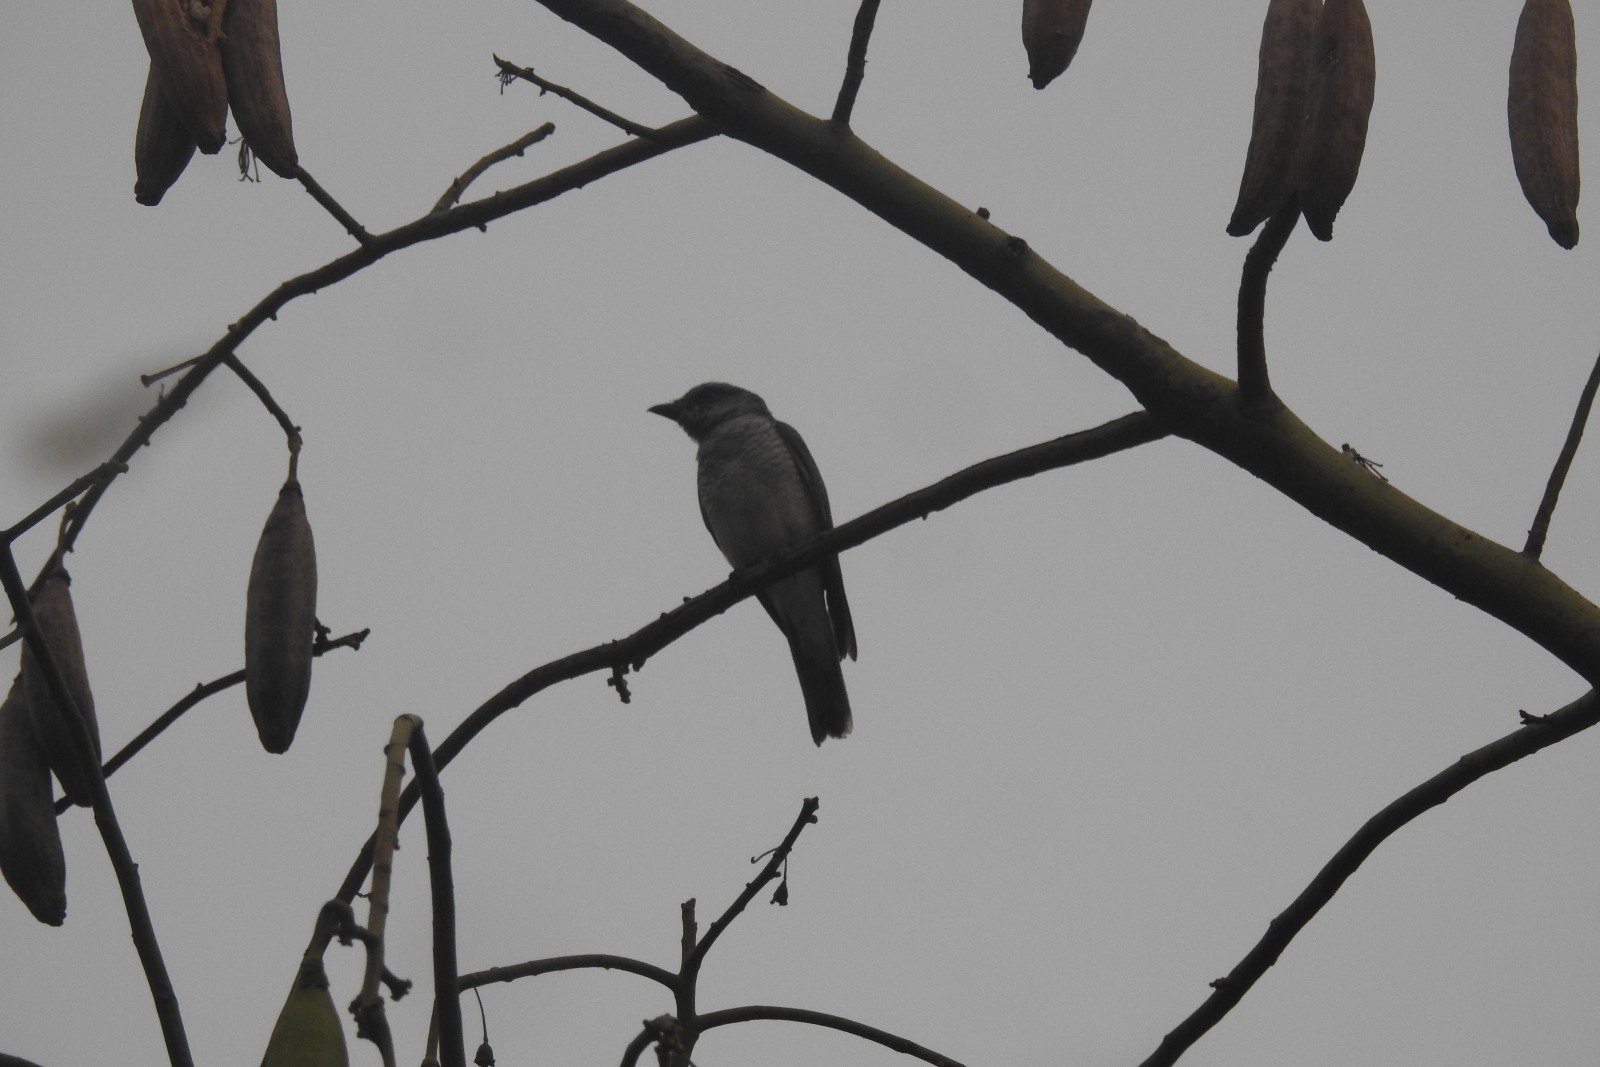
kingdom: Animalia
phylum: Chordata
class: Aves
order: Passeriformes
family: Campephagidae
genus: Coracina
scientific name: Coracina melanoptera
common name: Black-headed cuckooshrike
